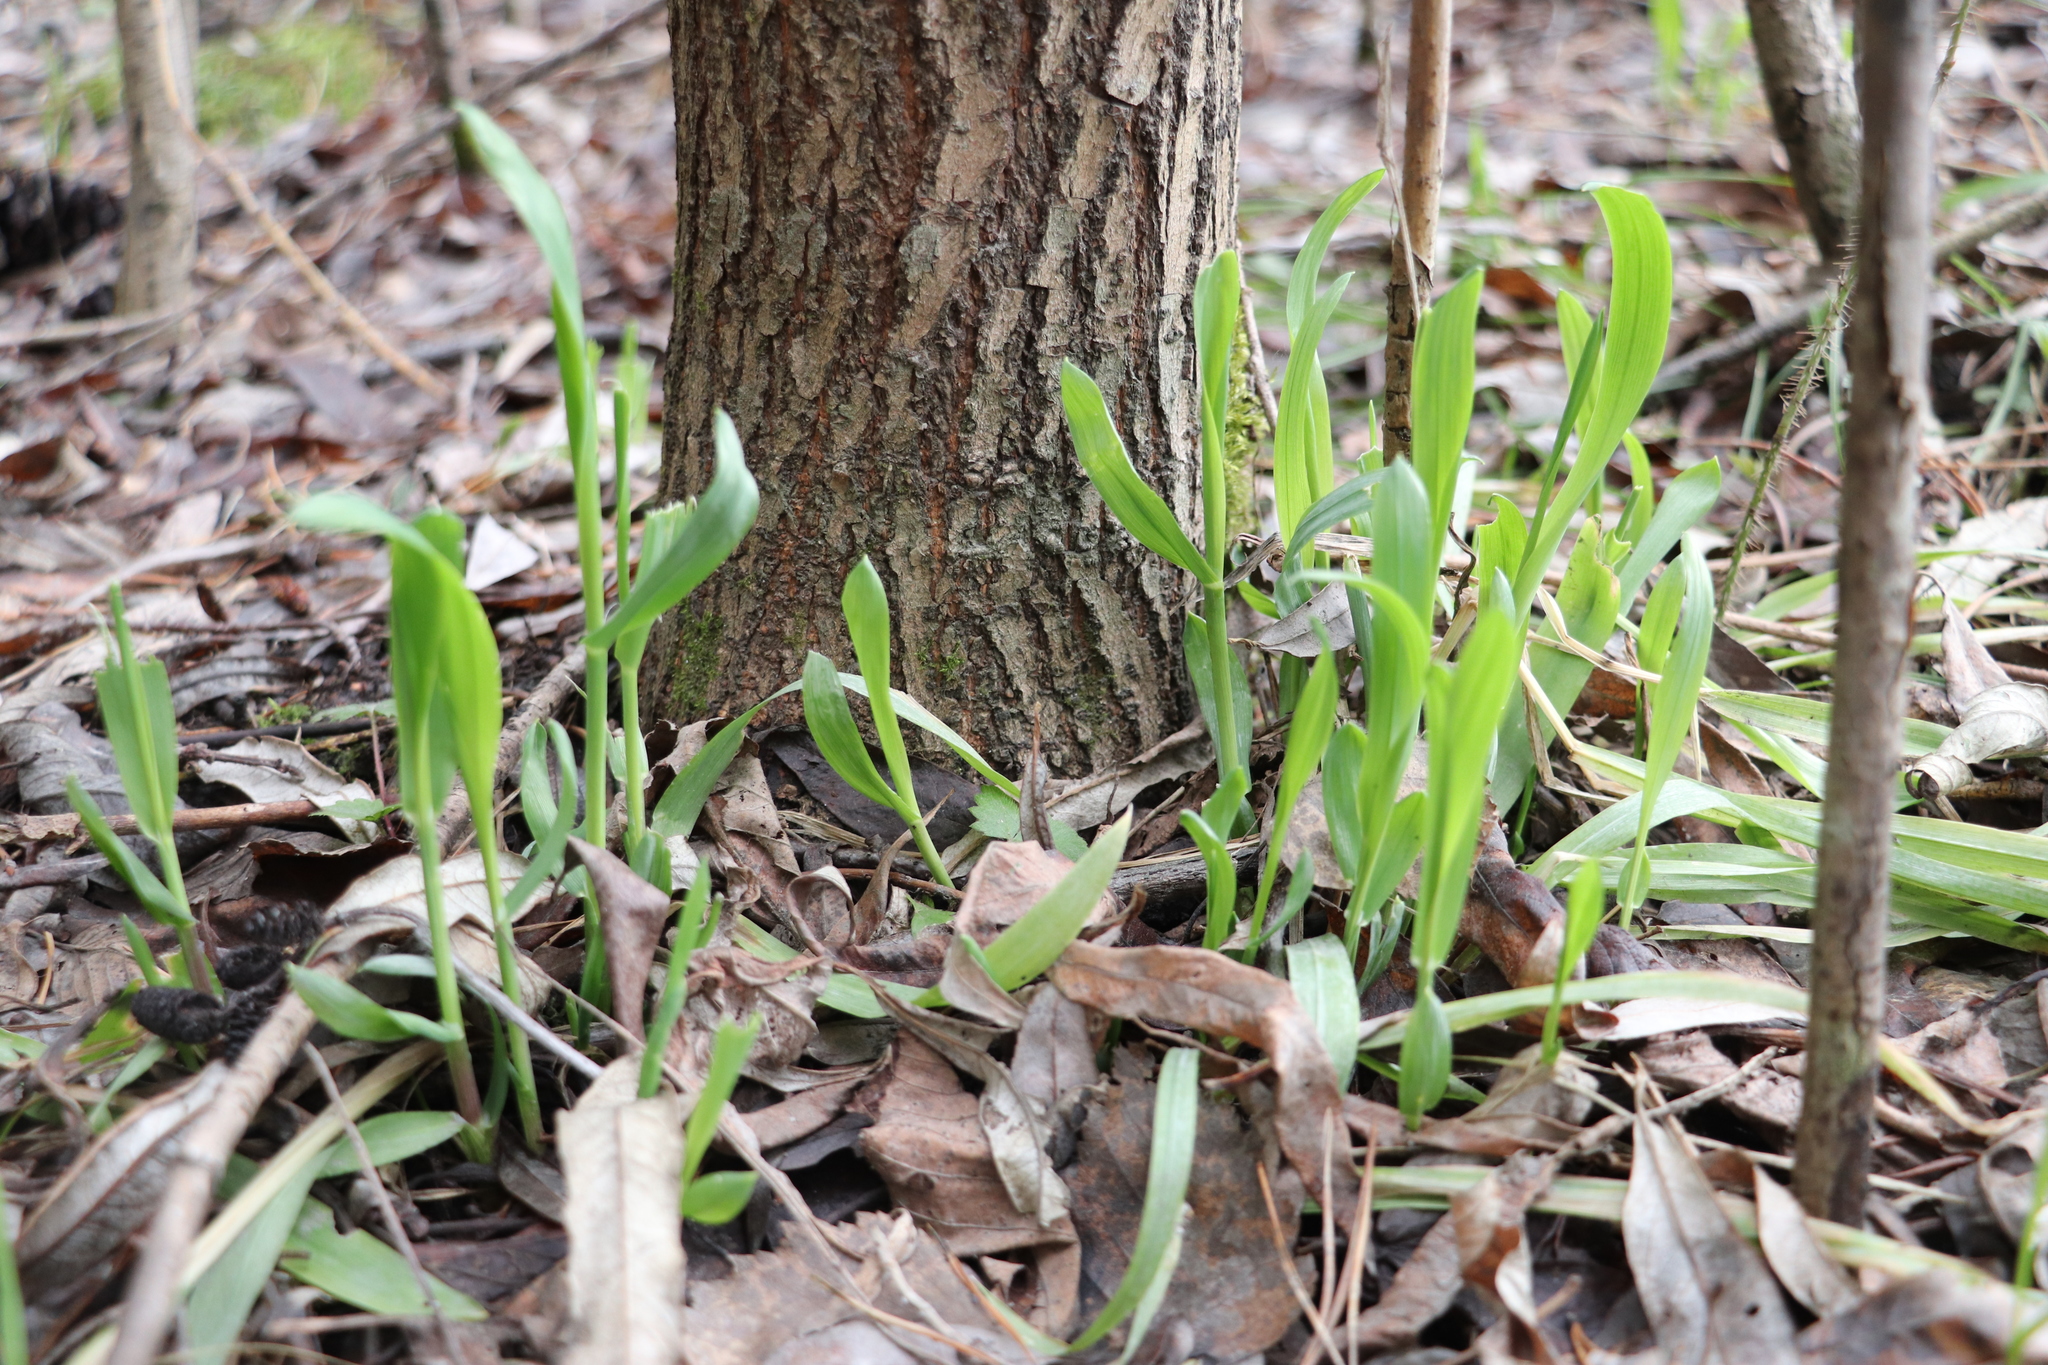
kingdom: Plantae
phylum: Tracheophyta
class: Liliopsida
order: Poales
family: Poaceae
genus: Milium
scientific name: Milium effusum
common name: Wood millet
